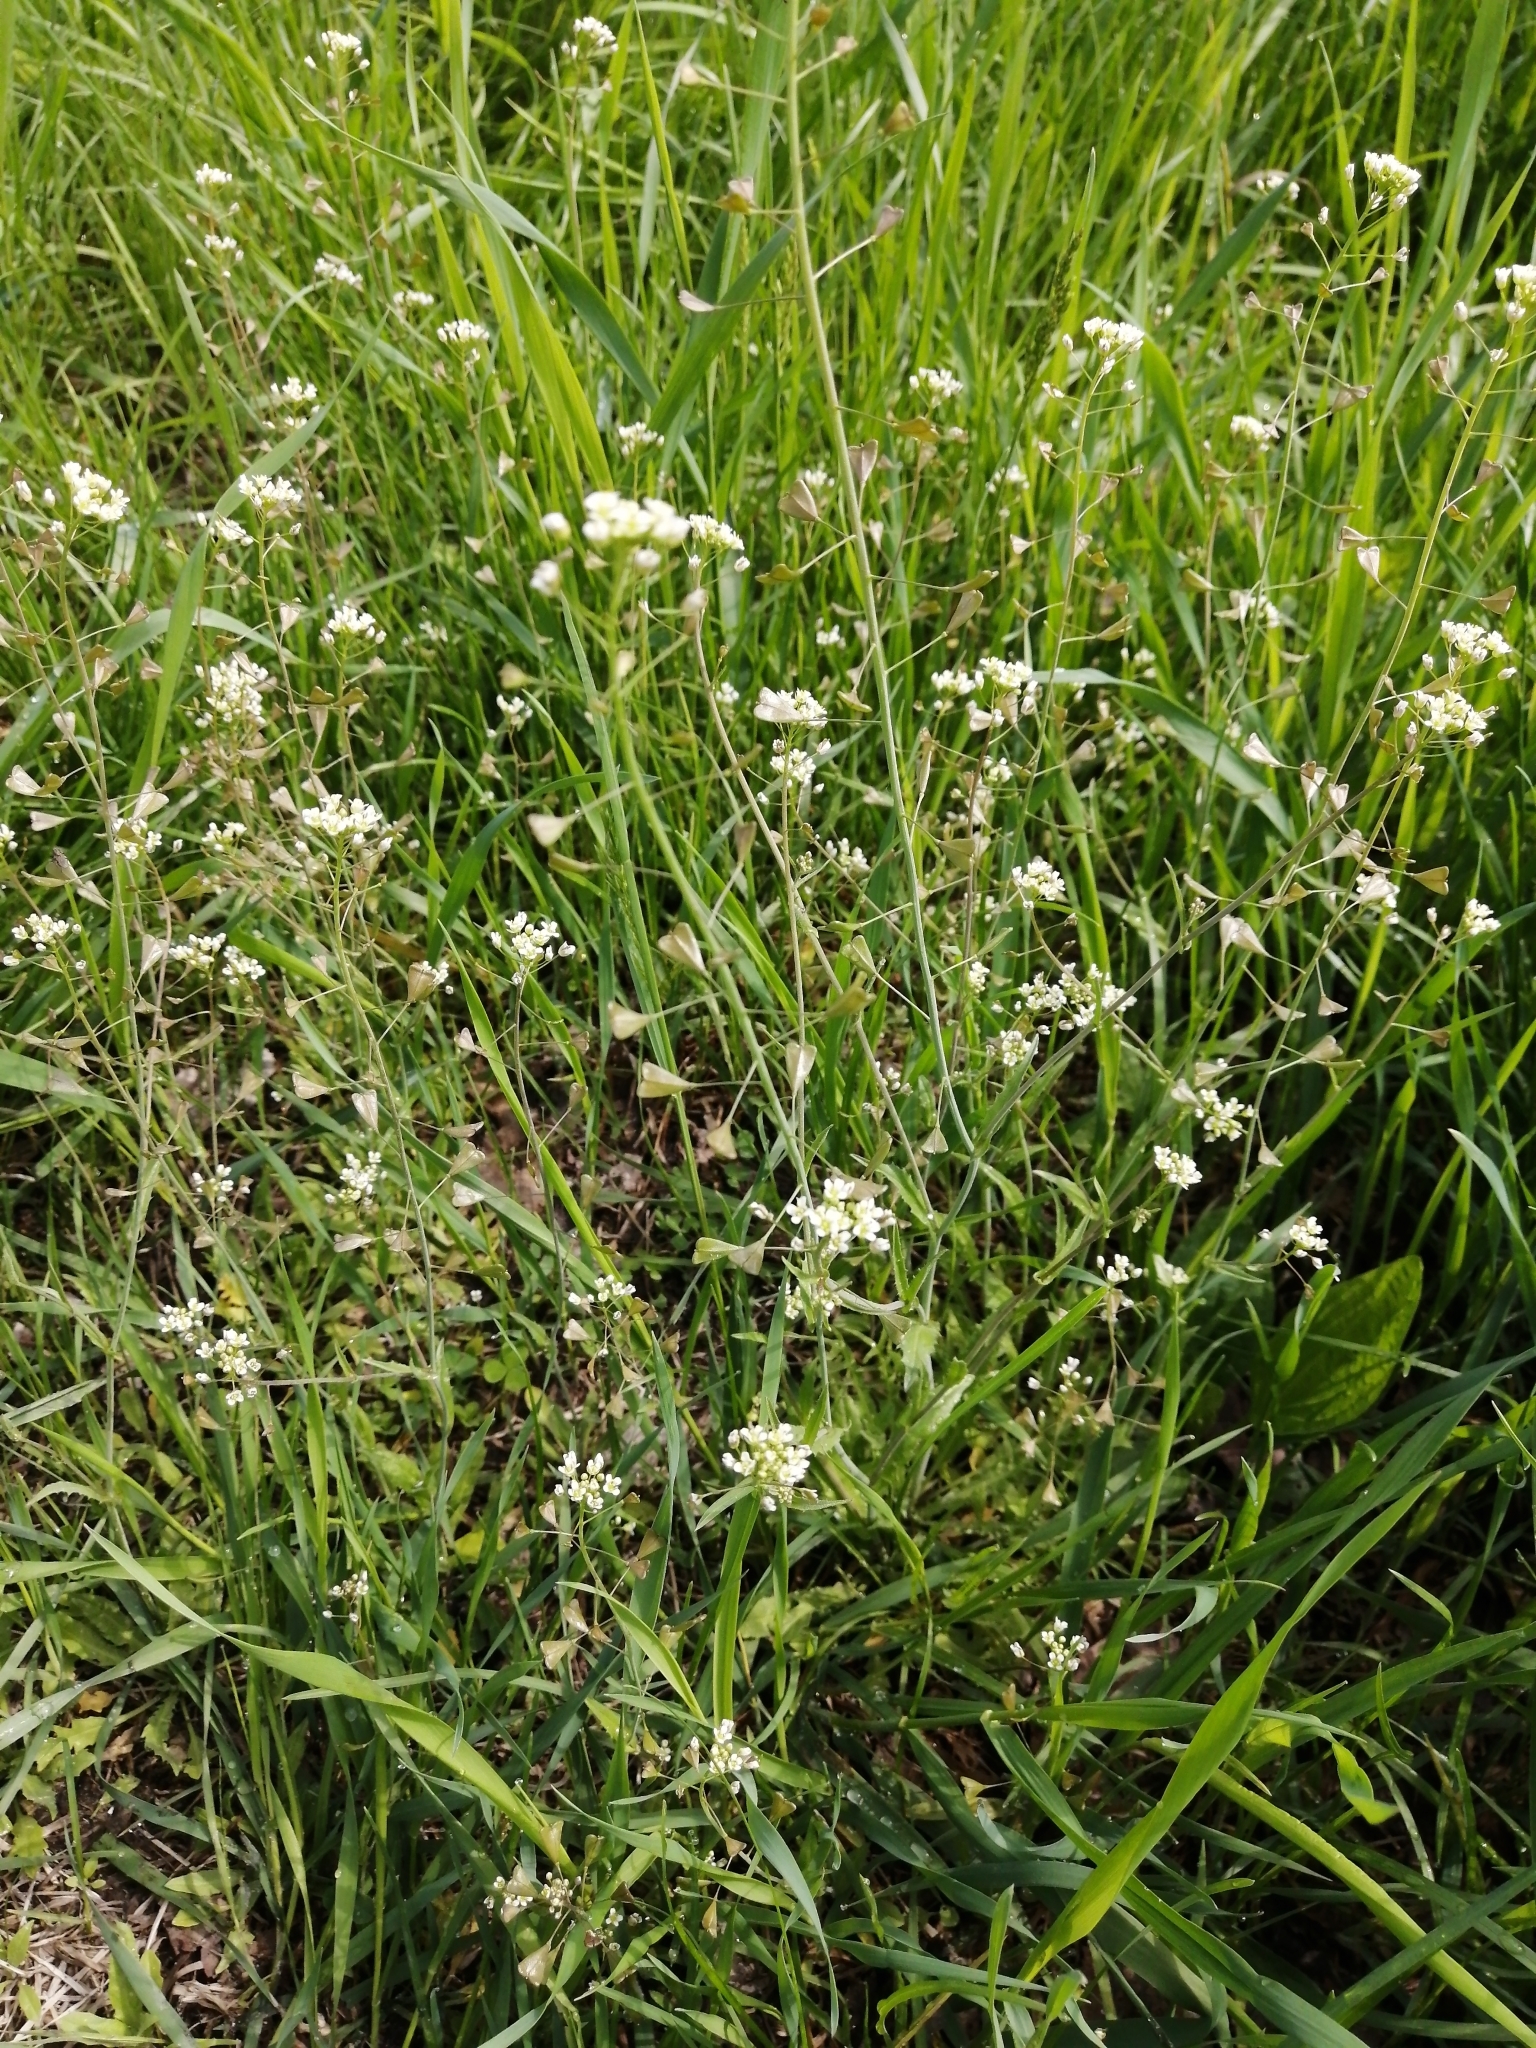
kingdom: Plantae
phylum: Tracheophyta
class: Magnoliopsida
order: Brassicales
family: Brassicaceae
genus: Capsella
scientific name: Capsella bursa-pastoris
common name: Shepherd's purse
